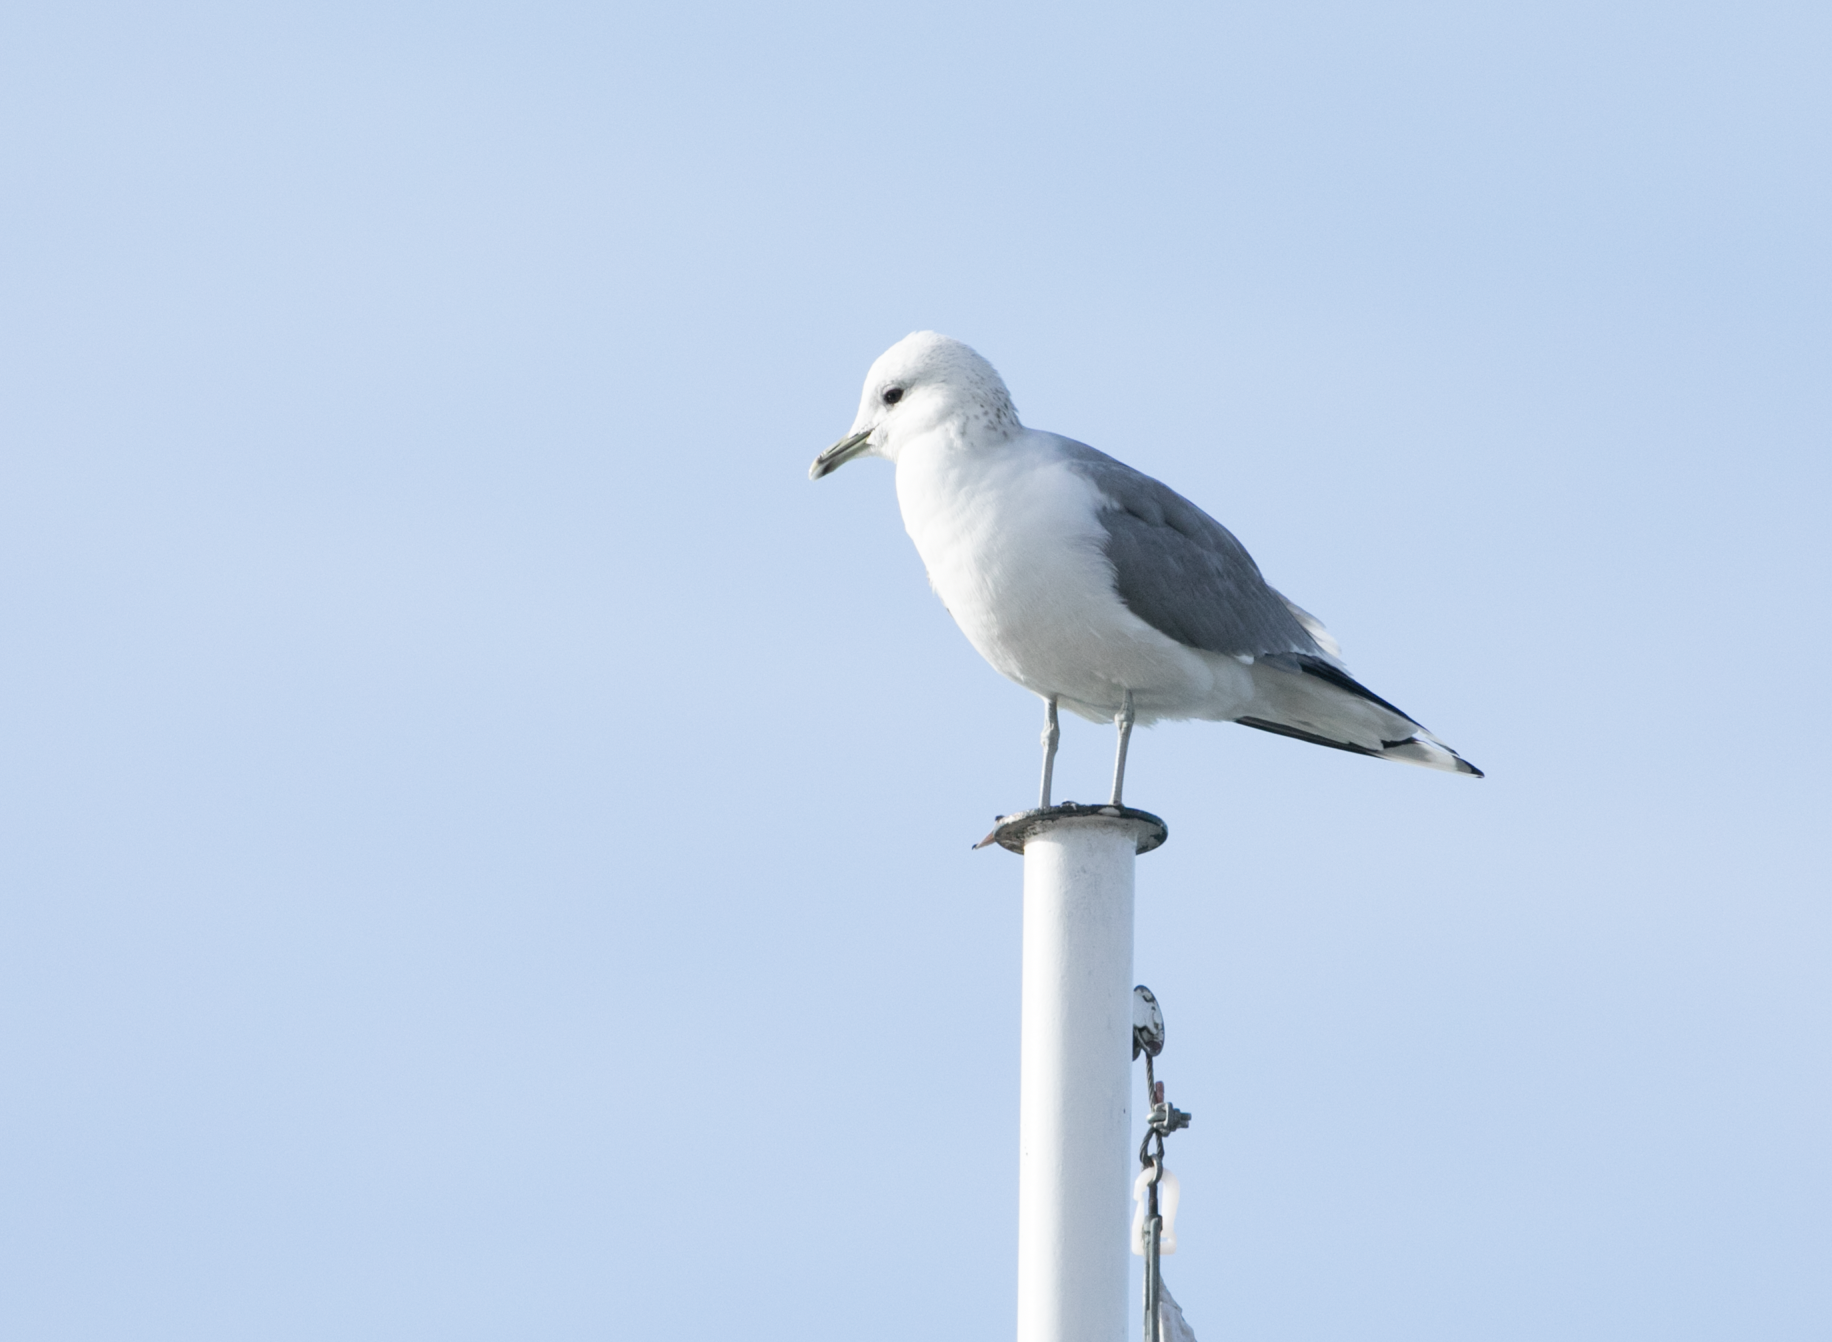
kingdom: Animalia
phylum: Chordata
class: Aves
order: Charadriiformes
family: Laridae
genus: Larus
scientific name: Larus canus
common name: Mew gull
